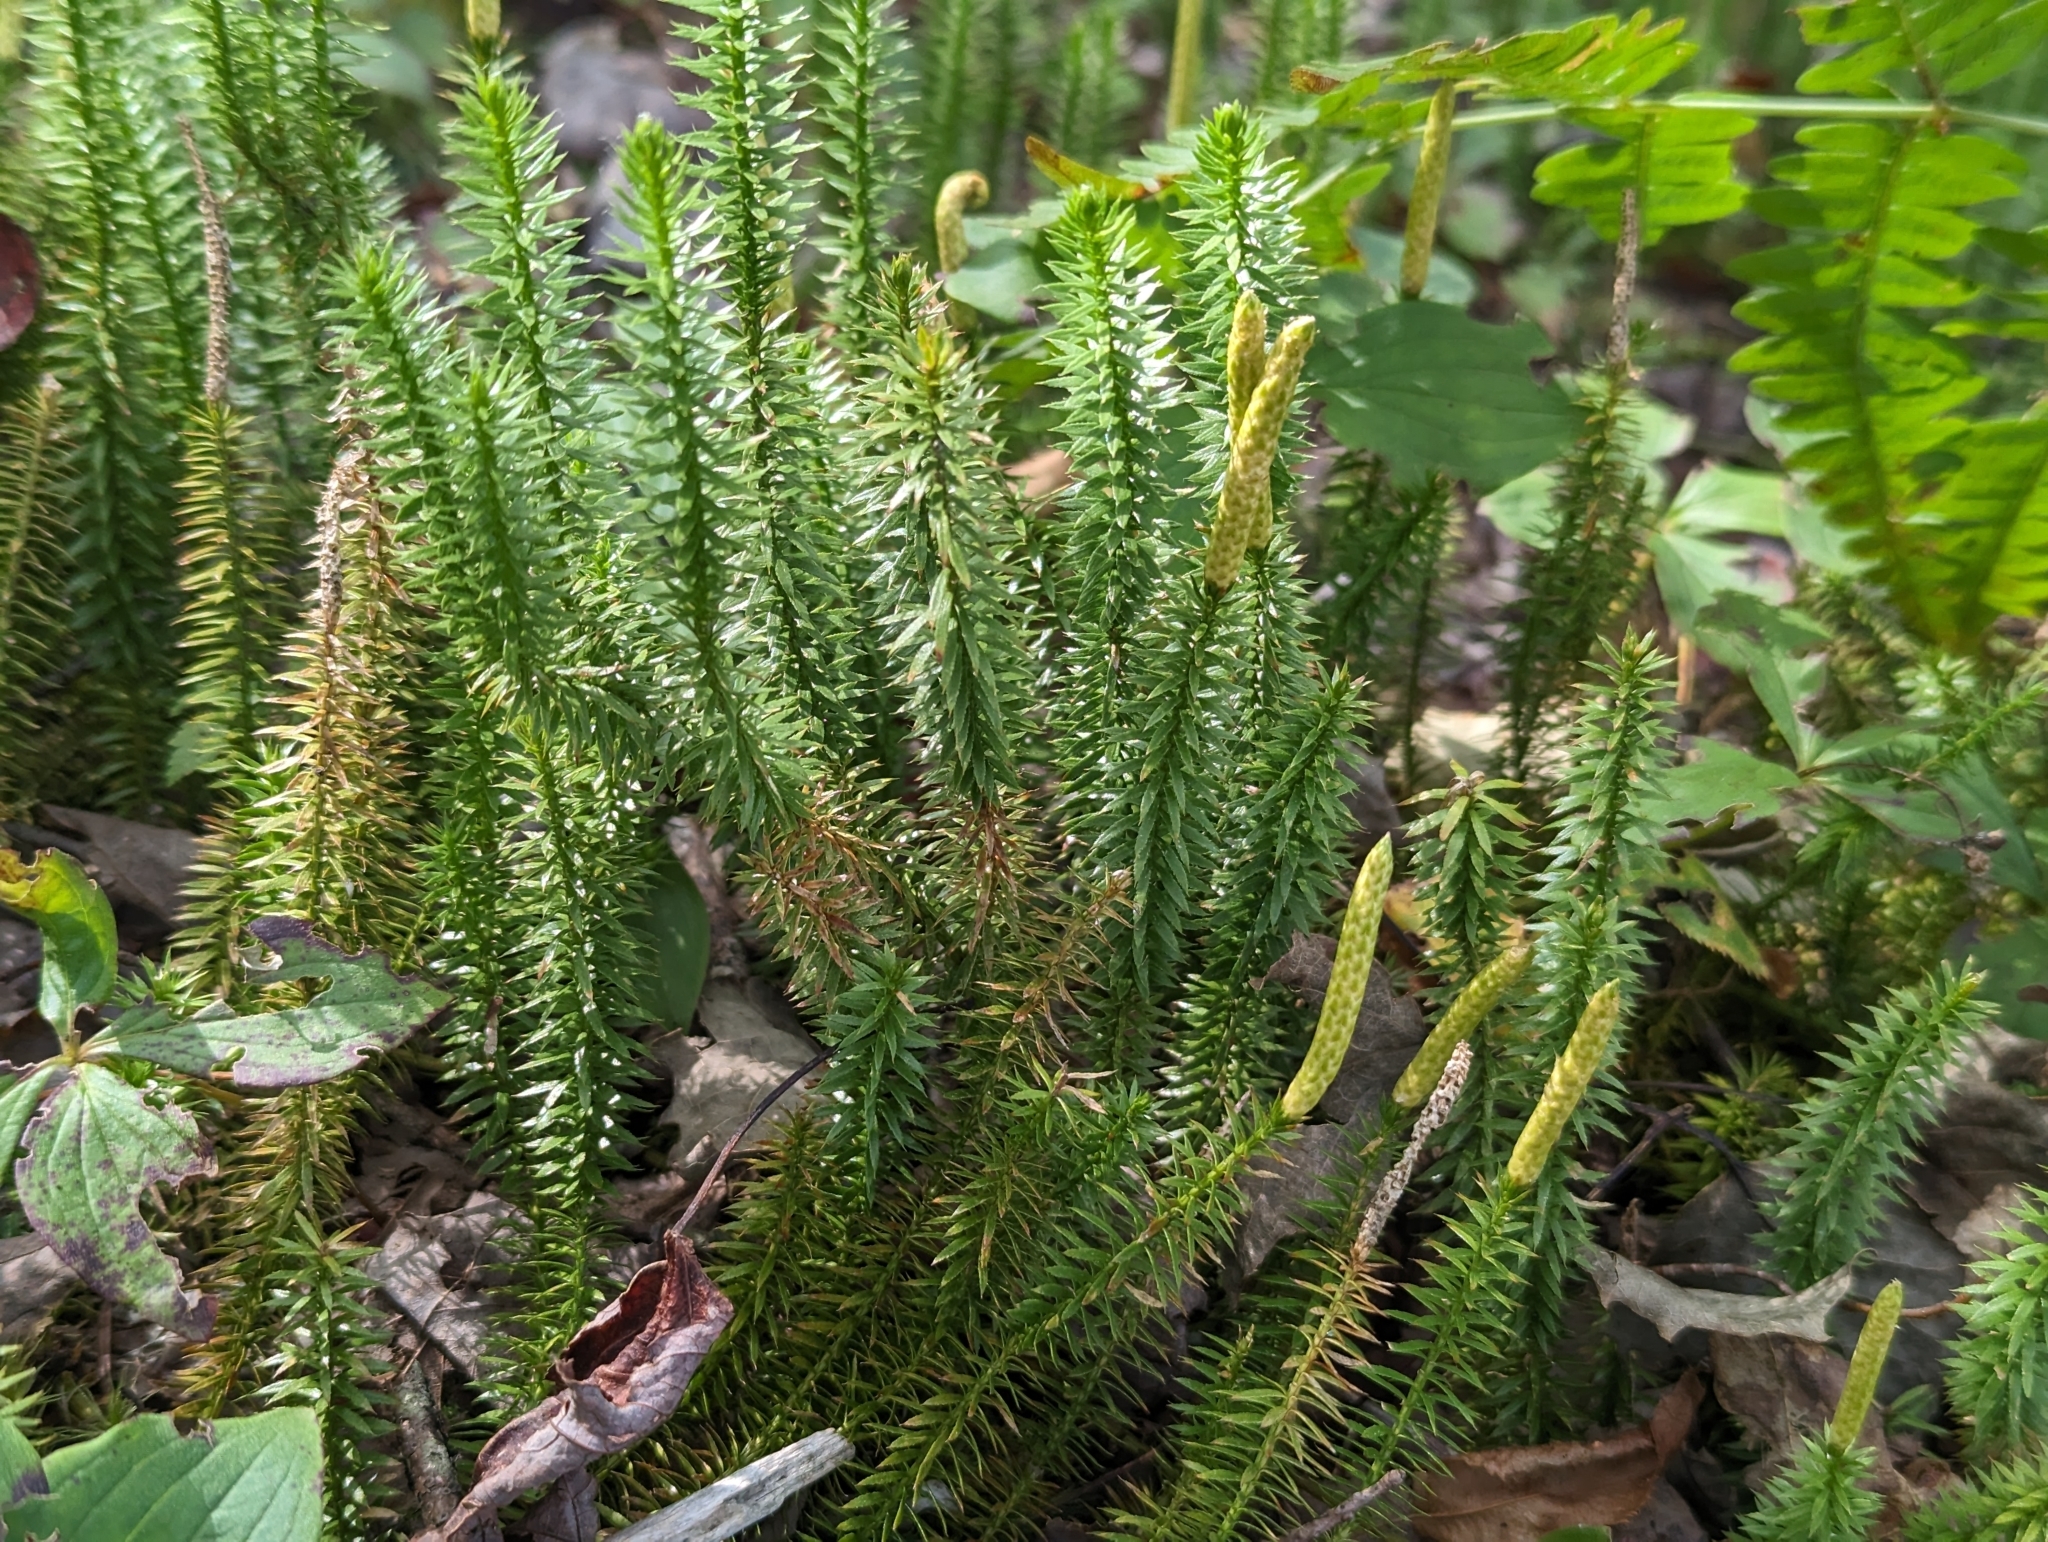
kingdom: Plantae
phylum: Tracheophyta
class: Lycopodiopsida
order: Lycopodiales
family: Lycopodiaceae
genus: Spinulum
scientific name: Spinulum annotinum
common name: Interrupted club-moss
